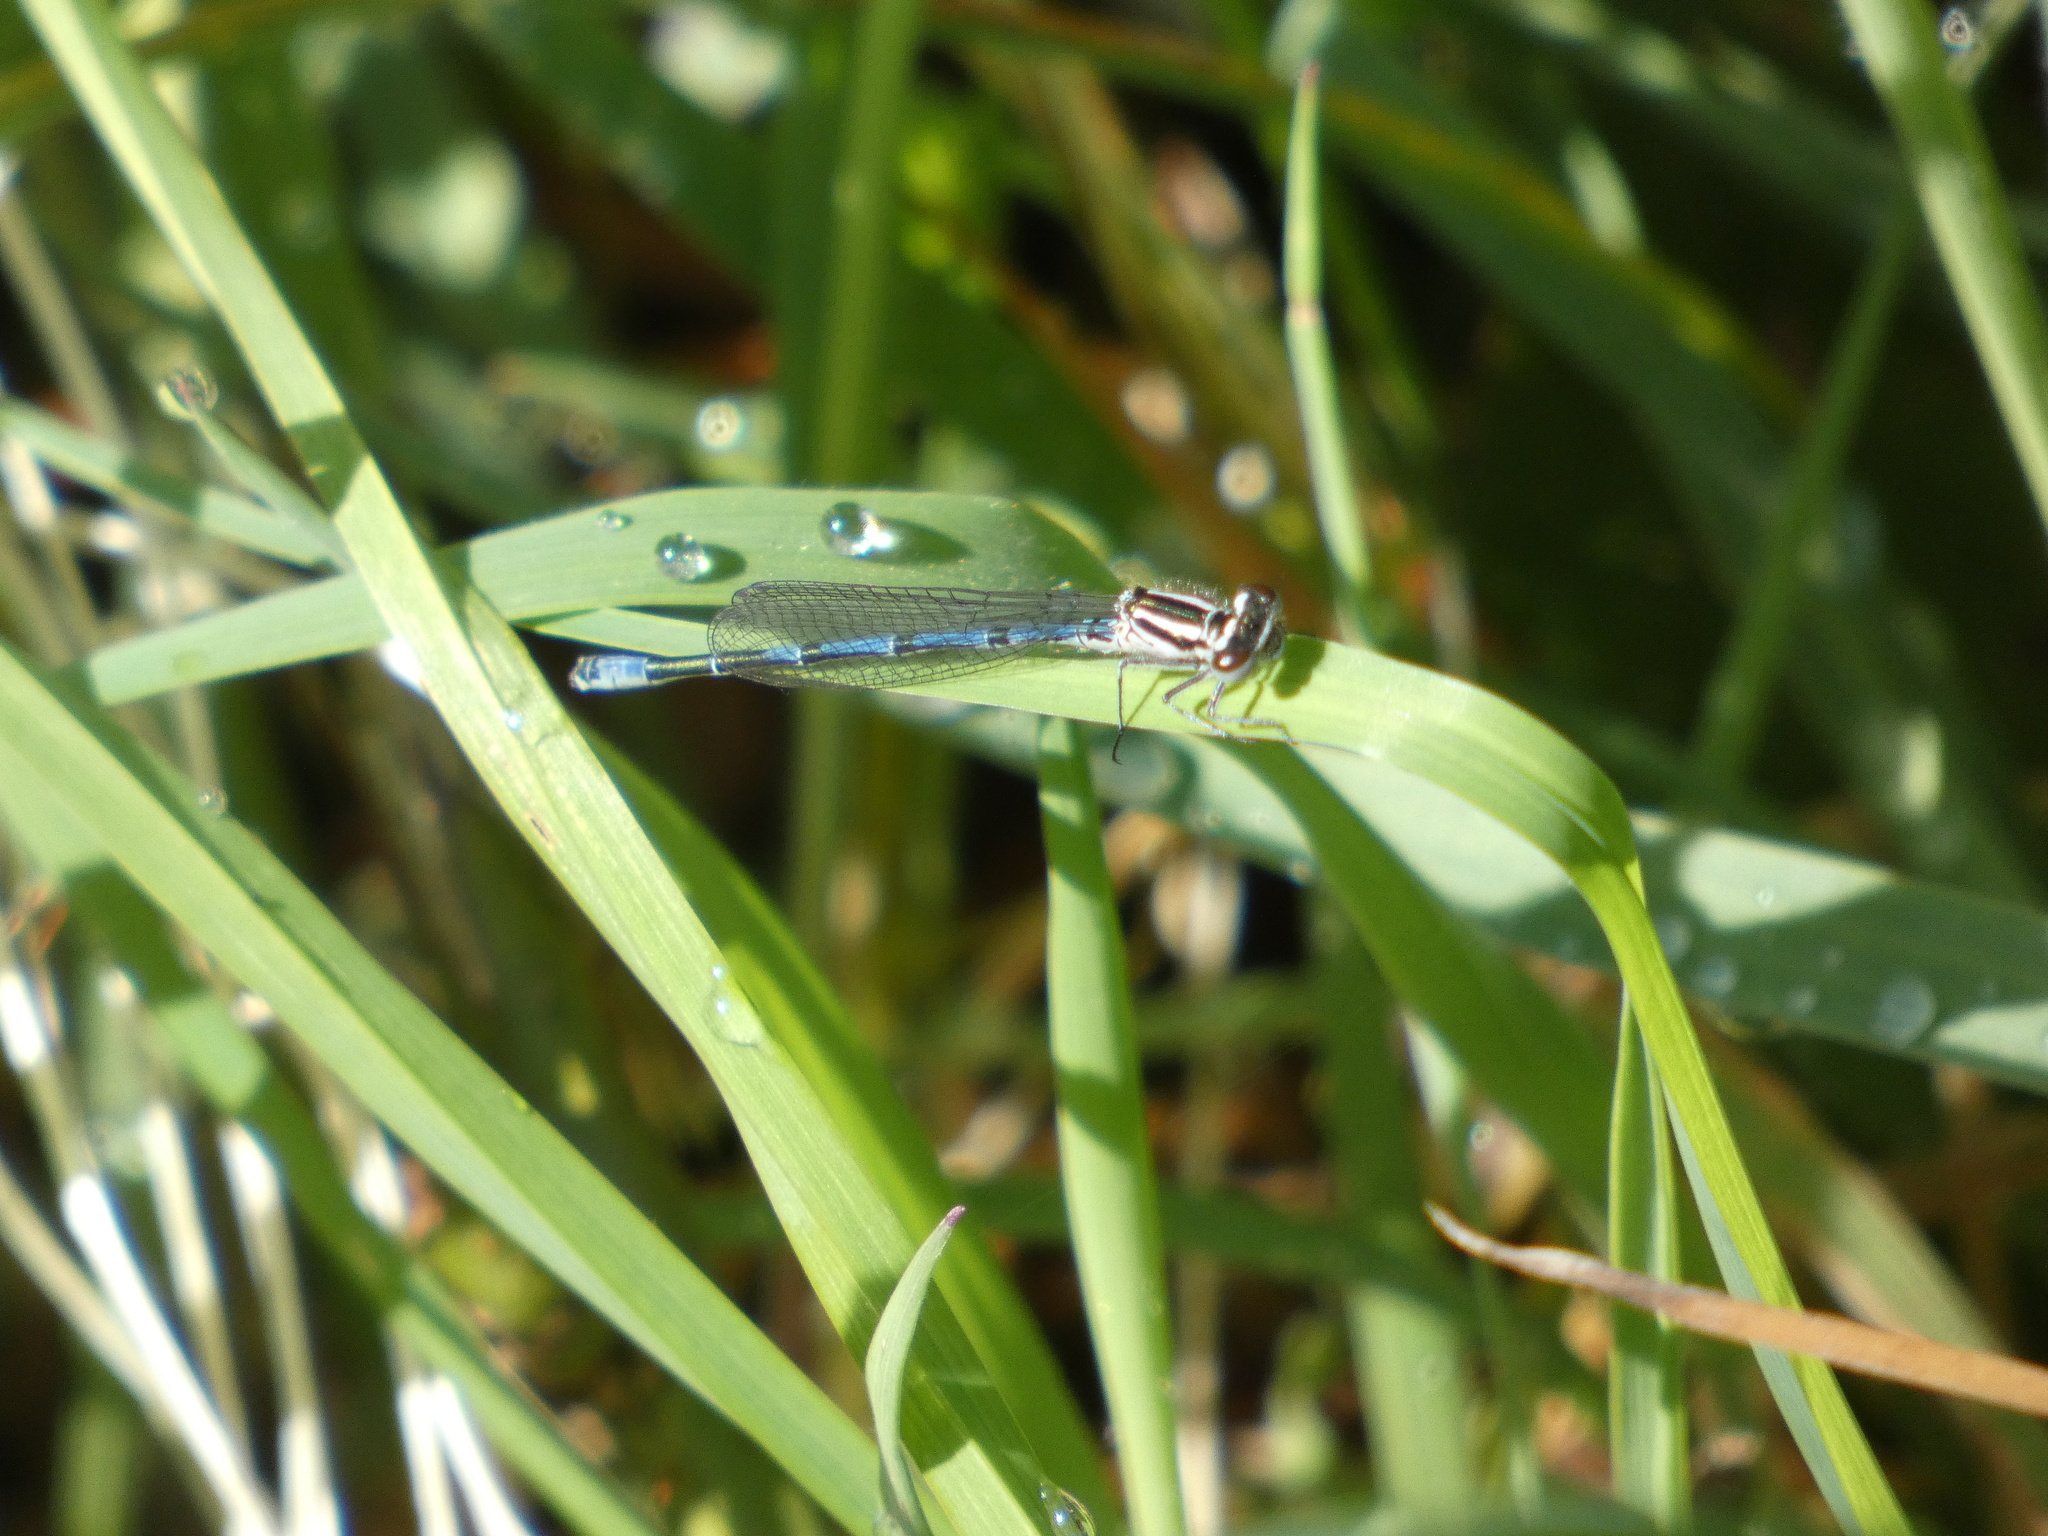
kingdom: Animalia
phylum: Arthropoda
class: Insecta
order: Odonata
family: Coenagrionidae
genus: Coenagrion
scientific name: Coenagrion puella
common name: Azure damselfly
